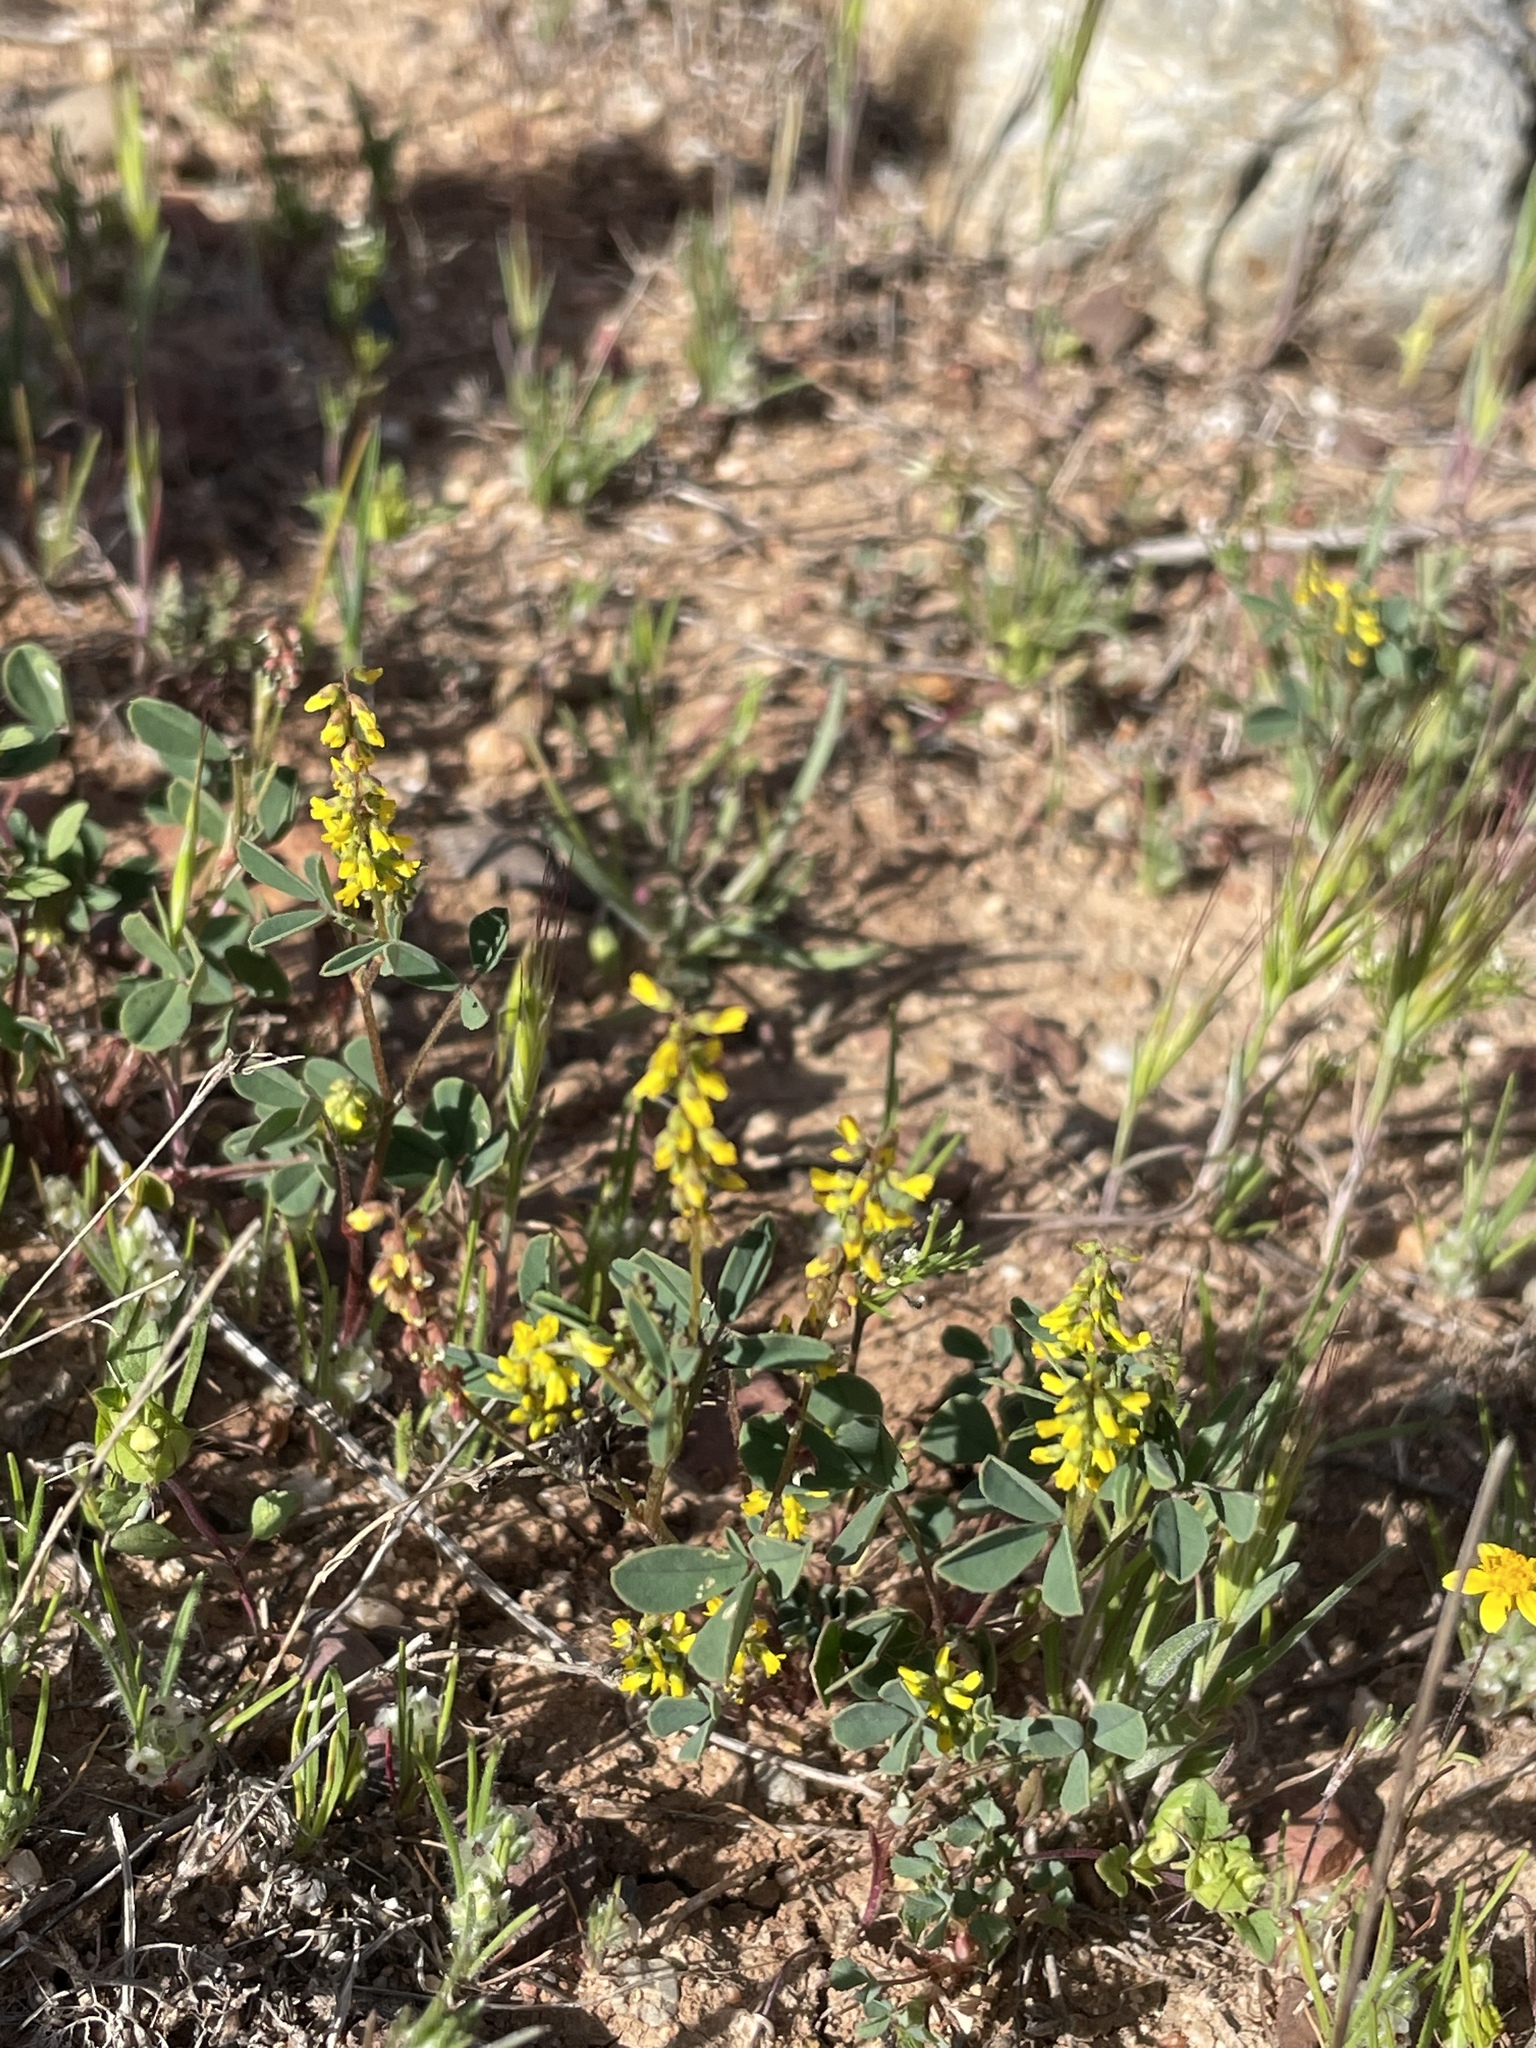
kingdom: Plantae
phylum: Tracheophyta
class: Magnoliopsida
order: Fabales
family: Fabaceae
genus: Melilotus
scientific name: Melilotus indicus
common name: Small melilot
